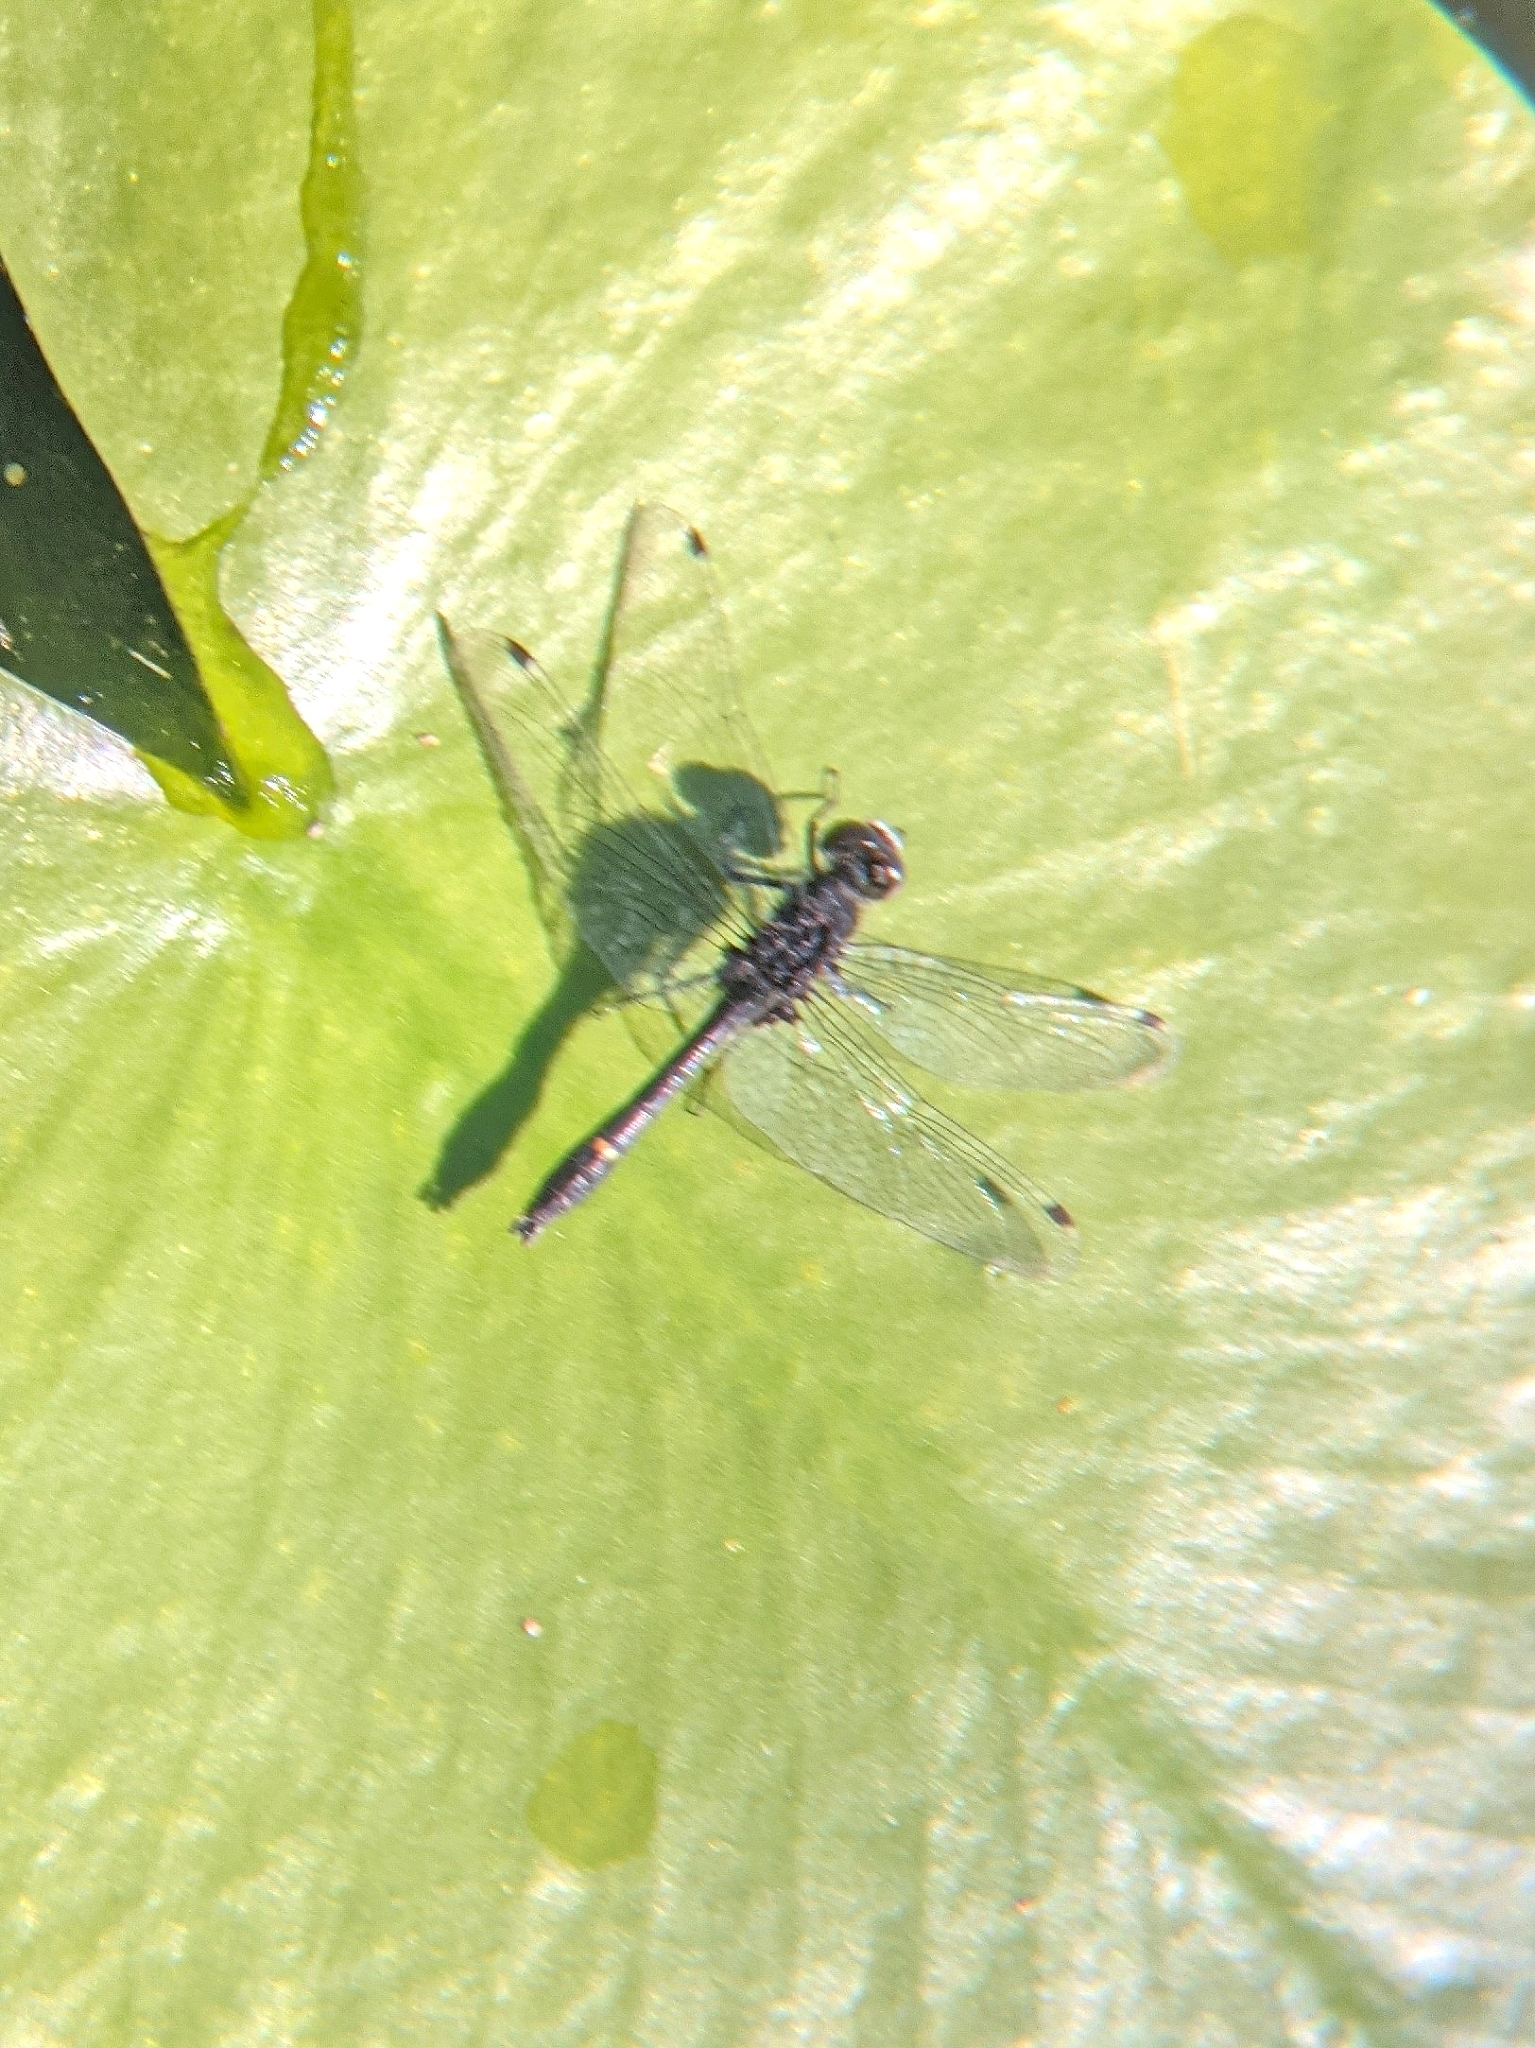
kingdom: Animalia
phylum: Arthropoda
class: Insecta
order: Odonata
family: Libellulidae
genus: Leucorrhinia
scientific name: Leucorrhinia intacta
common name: Dot-tailed whiteface
